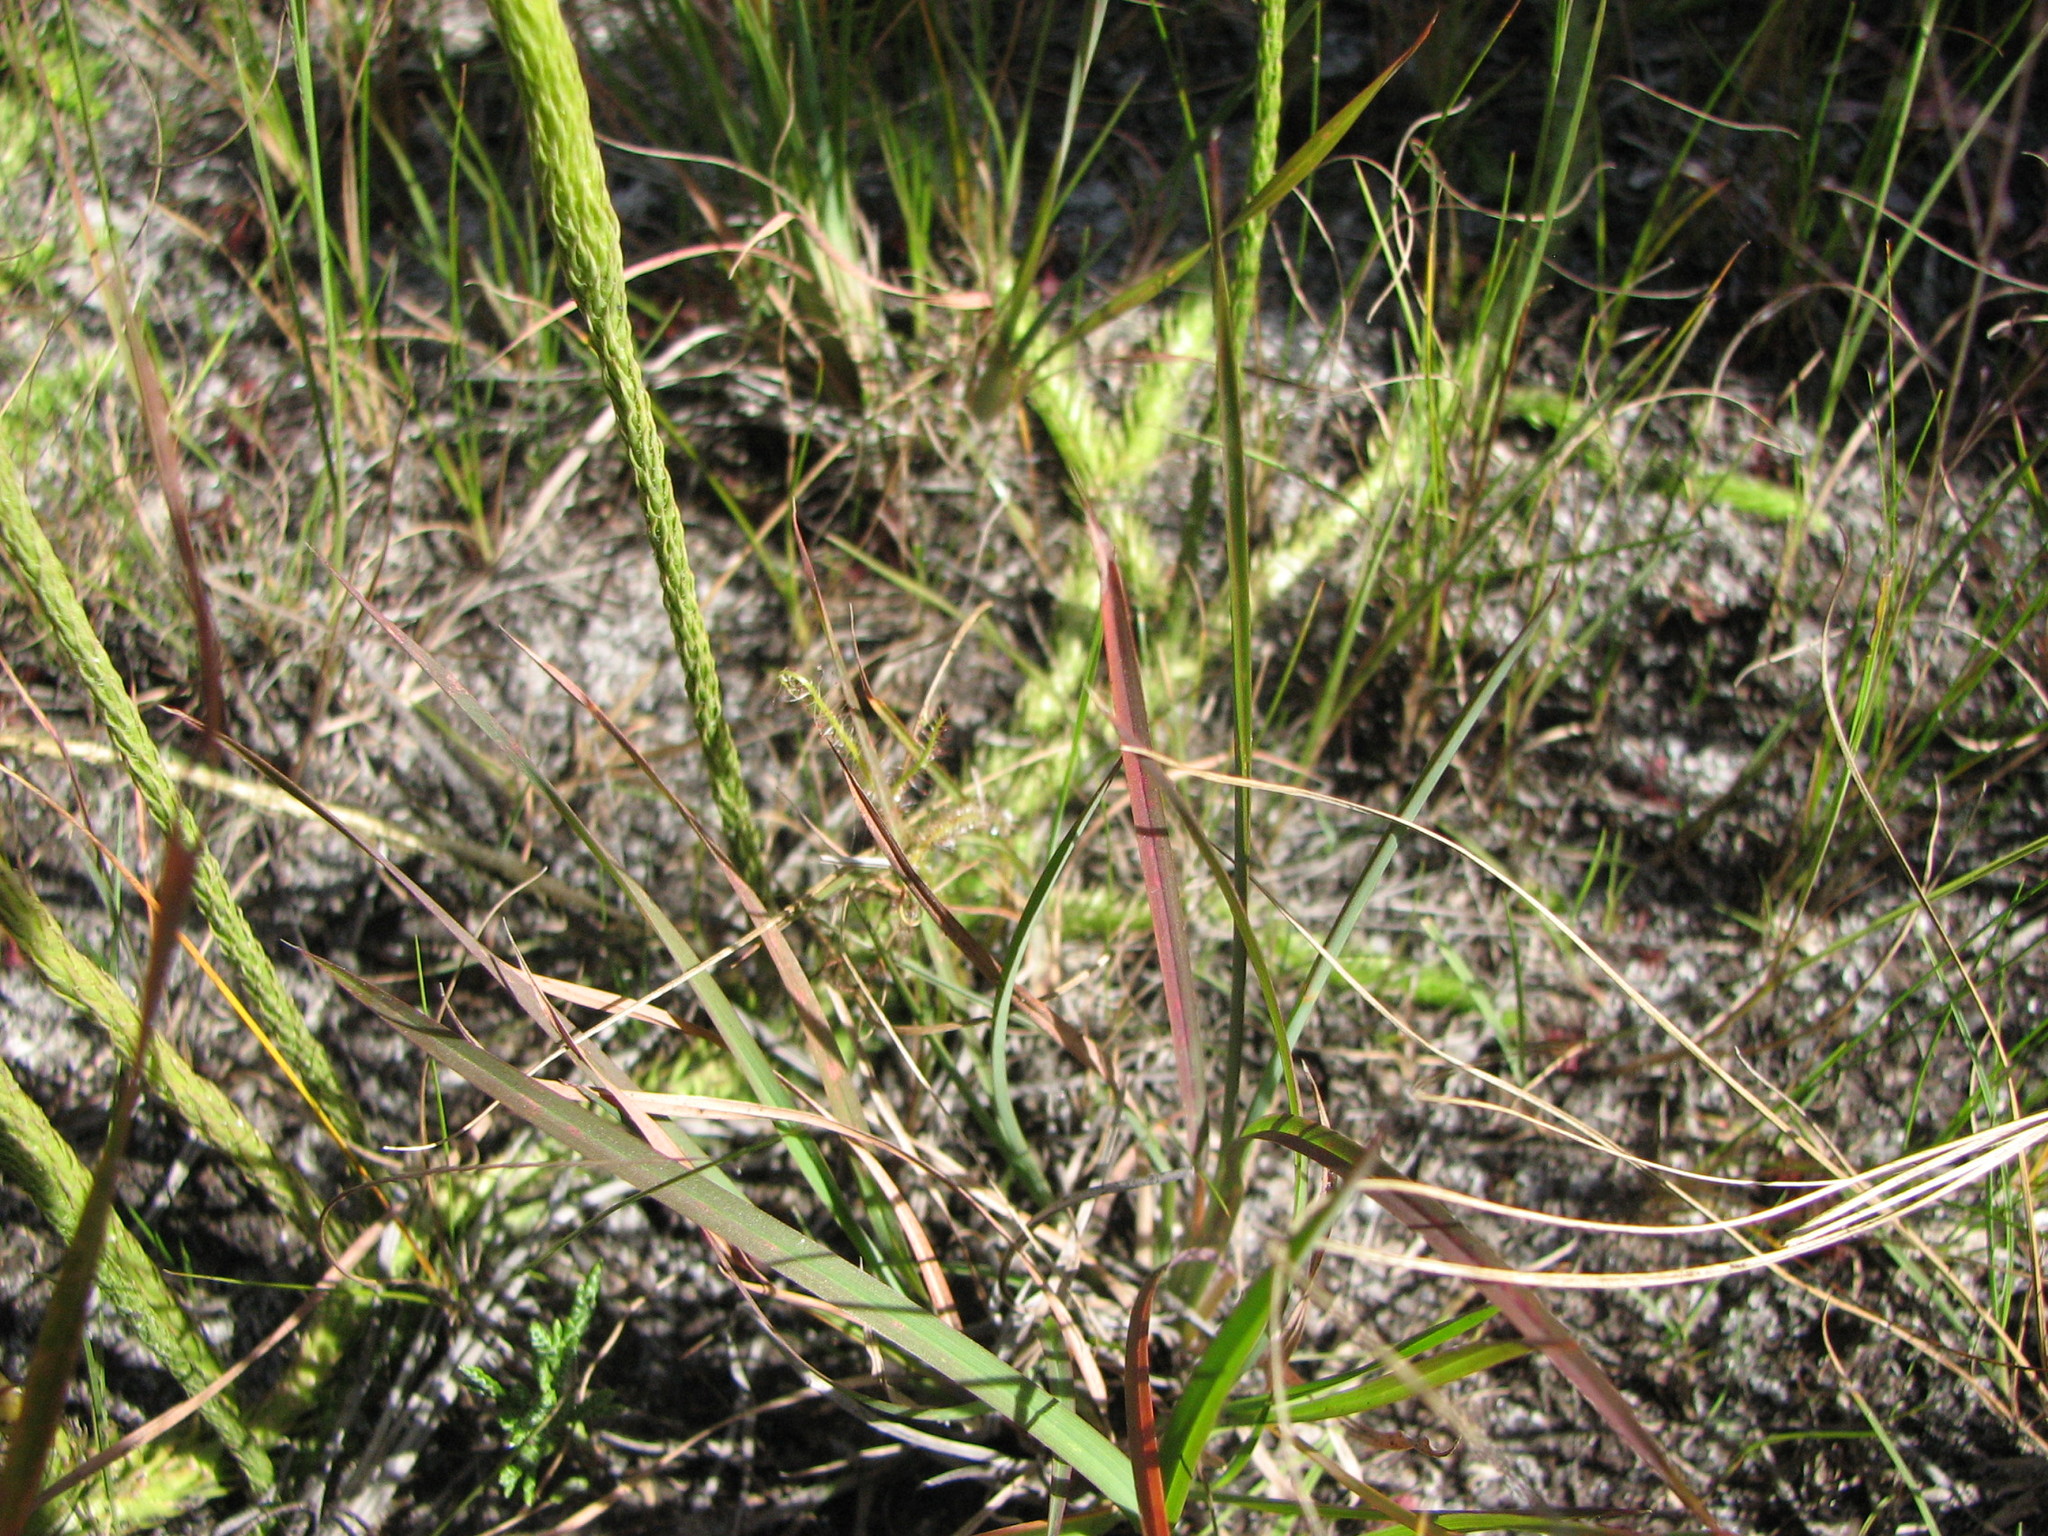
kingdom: Plantae
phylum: Tracheophyta
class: Lycopodiopsida
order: Lycopodiales
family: Lycopodiaceae
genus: Lycopodiella
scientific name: Lycopodiella alopecuroides
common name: Foxtail clubmoss
